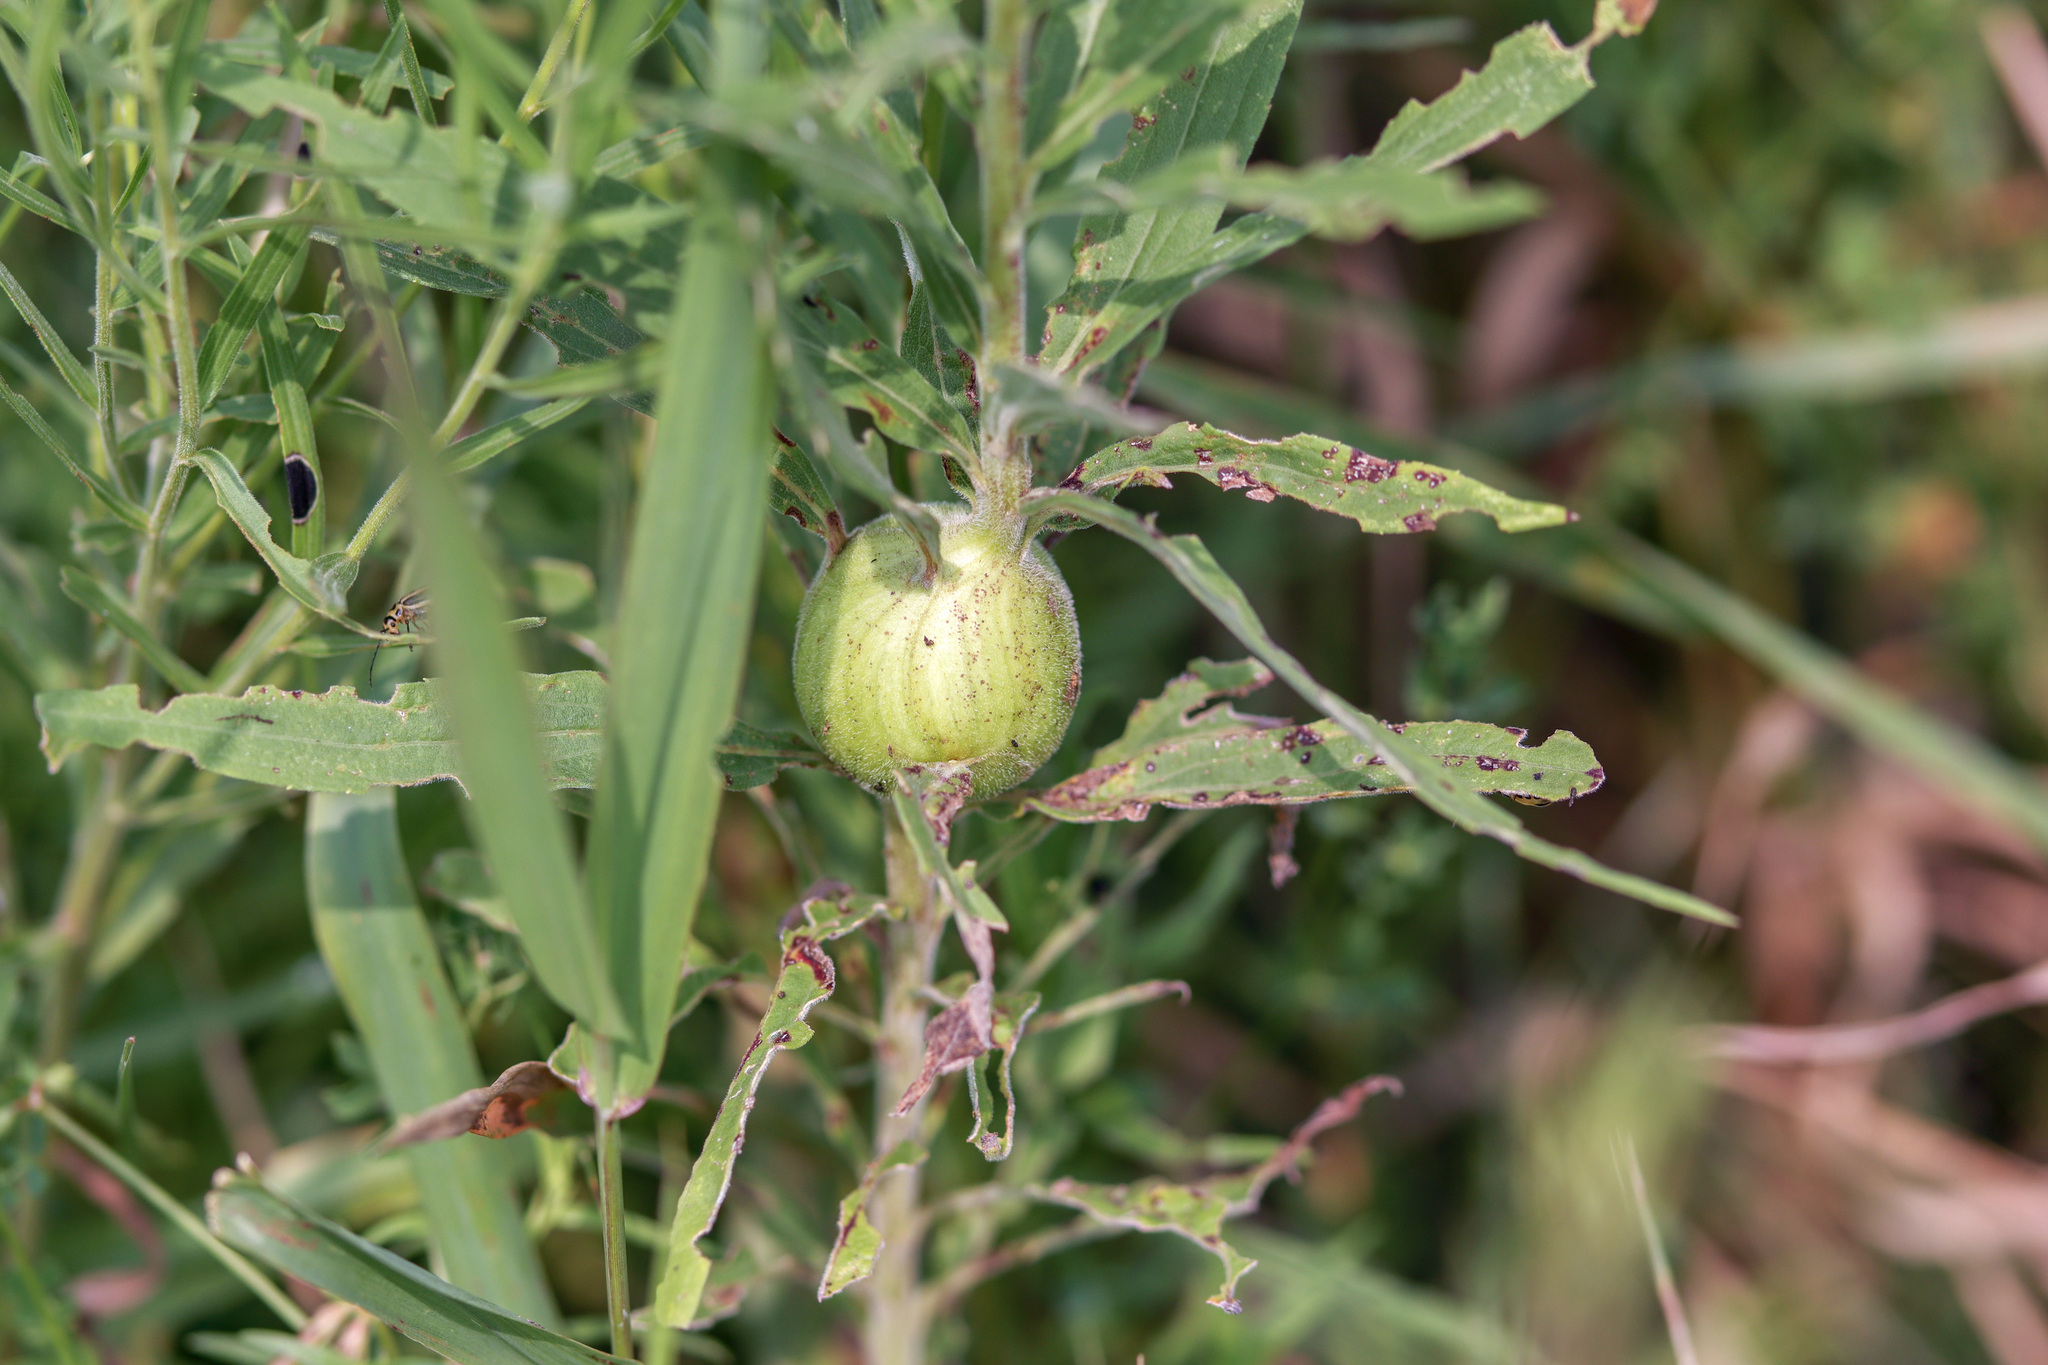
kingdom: Animalia
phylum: Arthropoda
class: Insecta
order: Diptera
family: Tephritidae
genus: Eurosta
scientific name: Eurosta solidaginis
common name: Goldenrod gall fly
